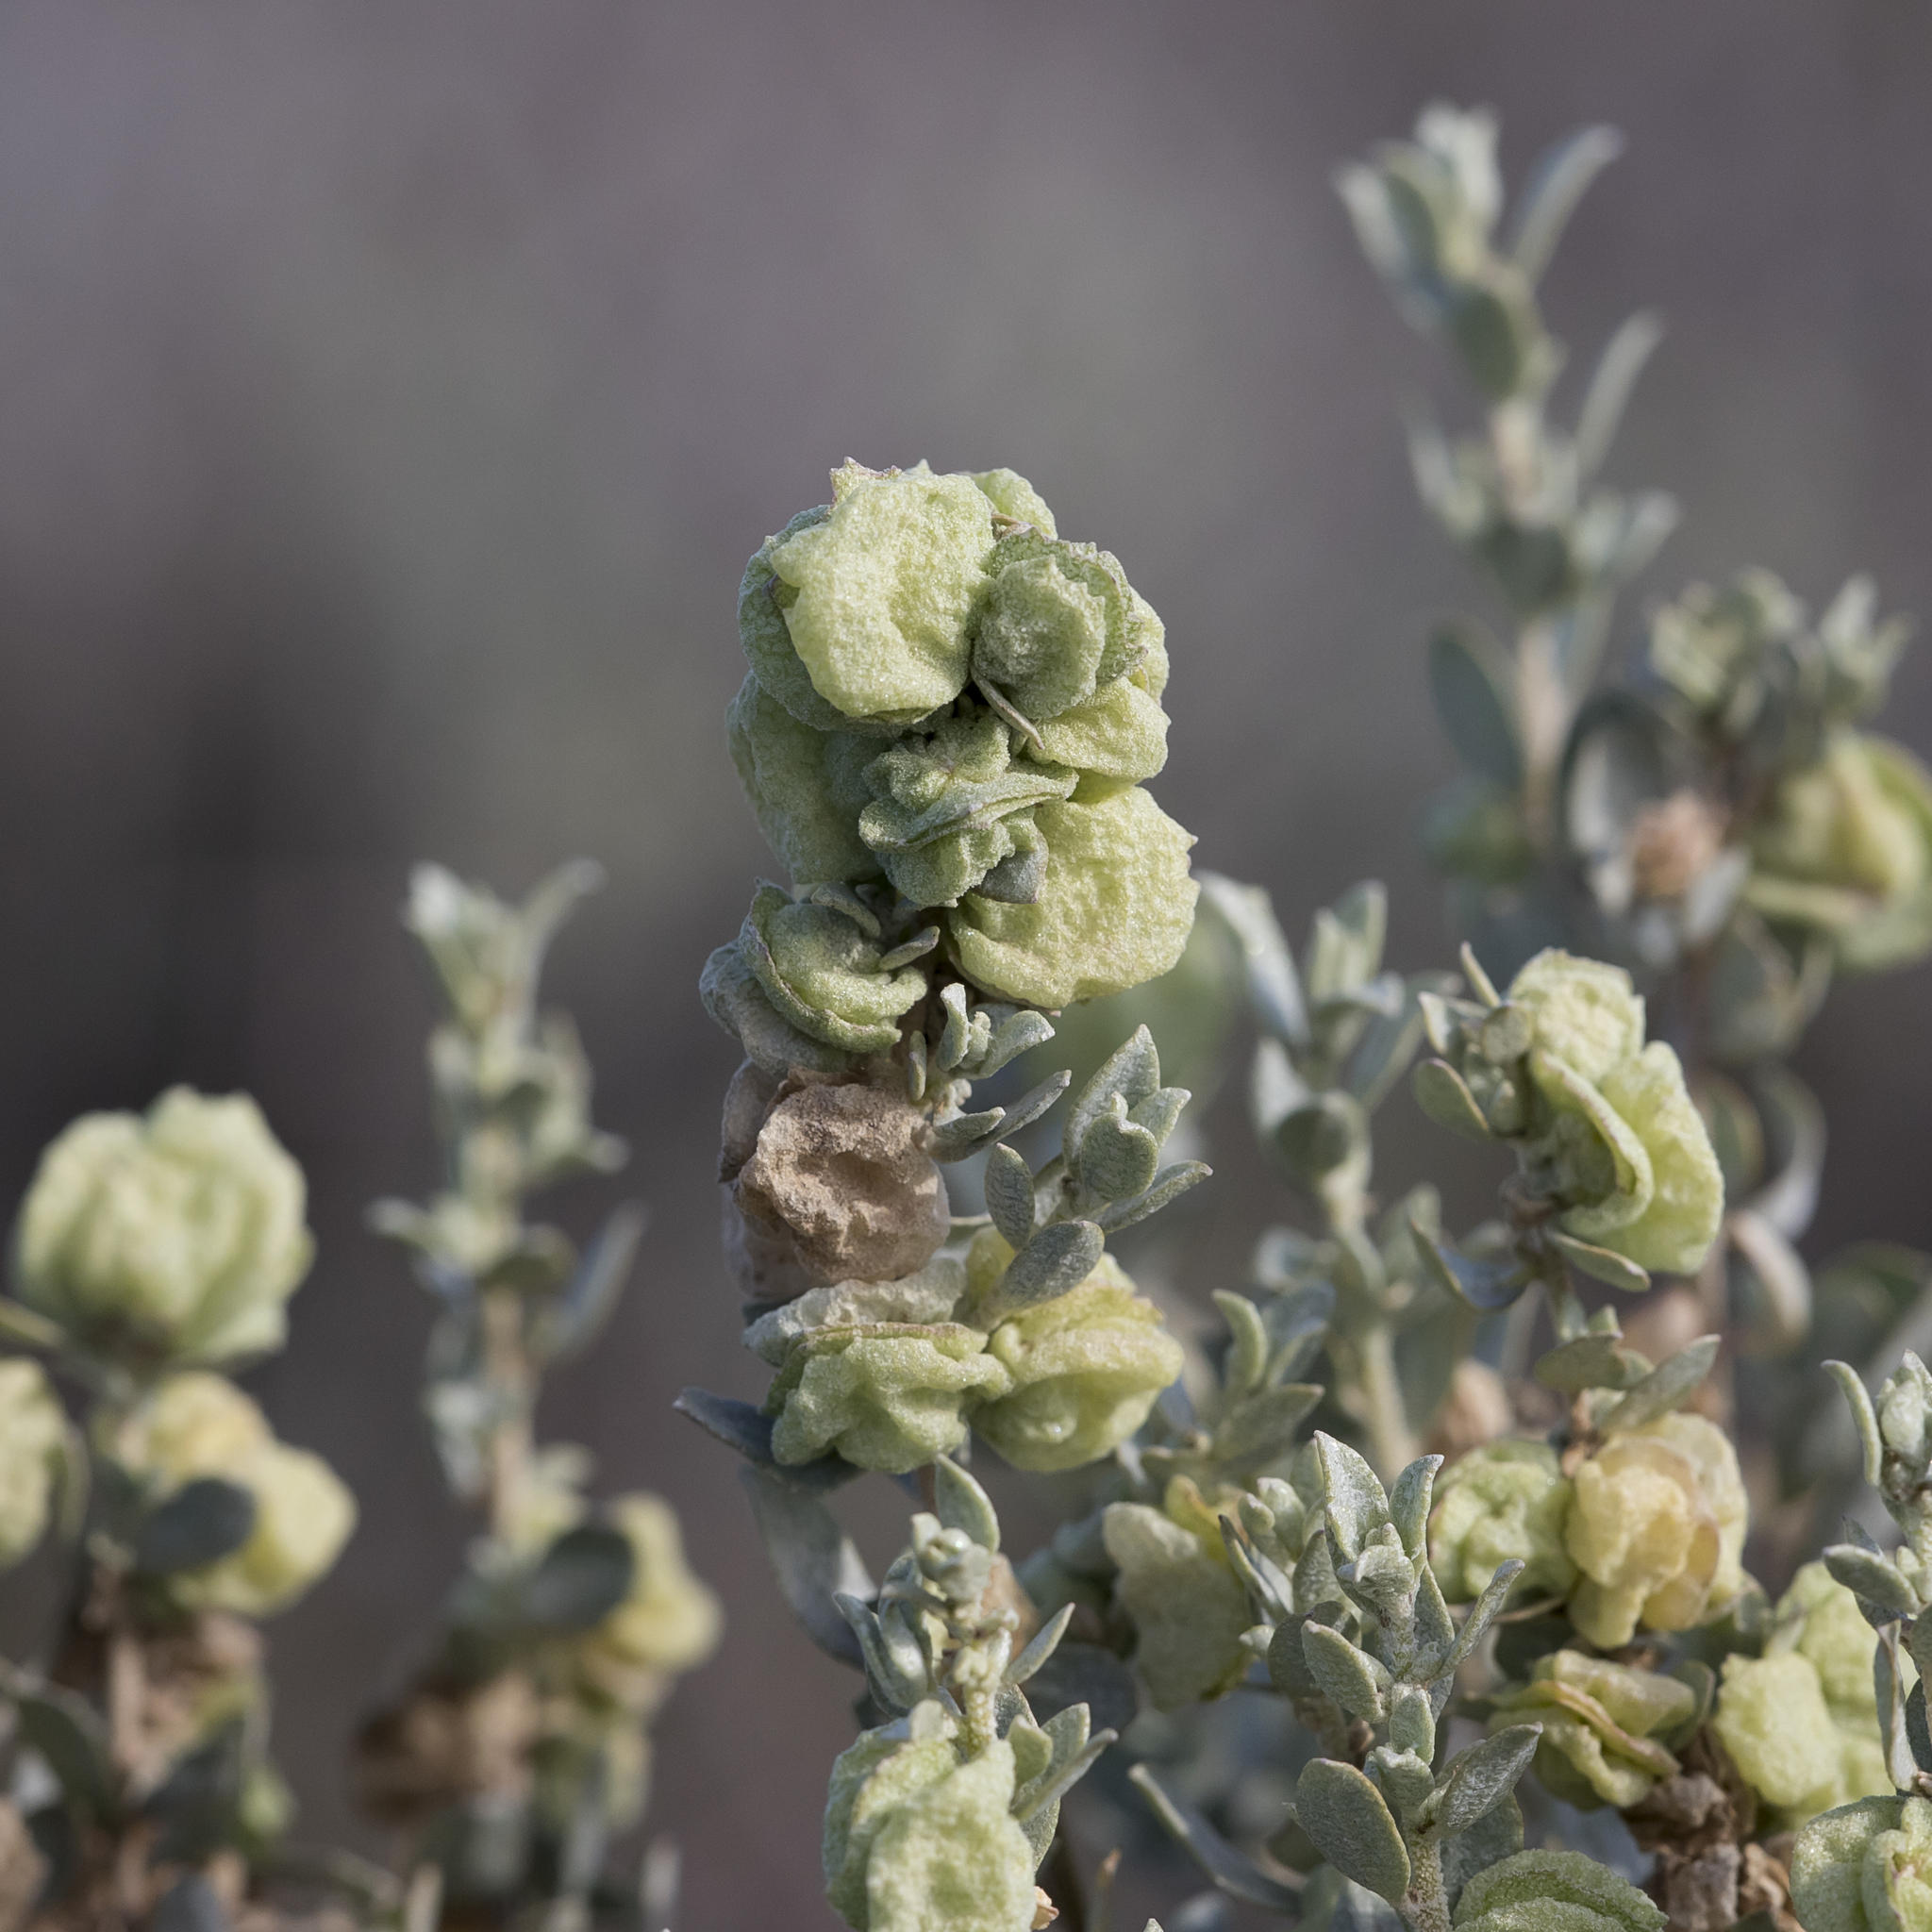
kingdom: Plantae
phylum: Tracheophyta
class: Magnoliopsida
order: Caryophyllales
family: Amaranthaceae
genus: Atriplex
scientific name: Atriplex vesicaria
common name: Aboriginal saltbush
